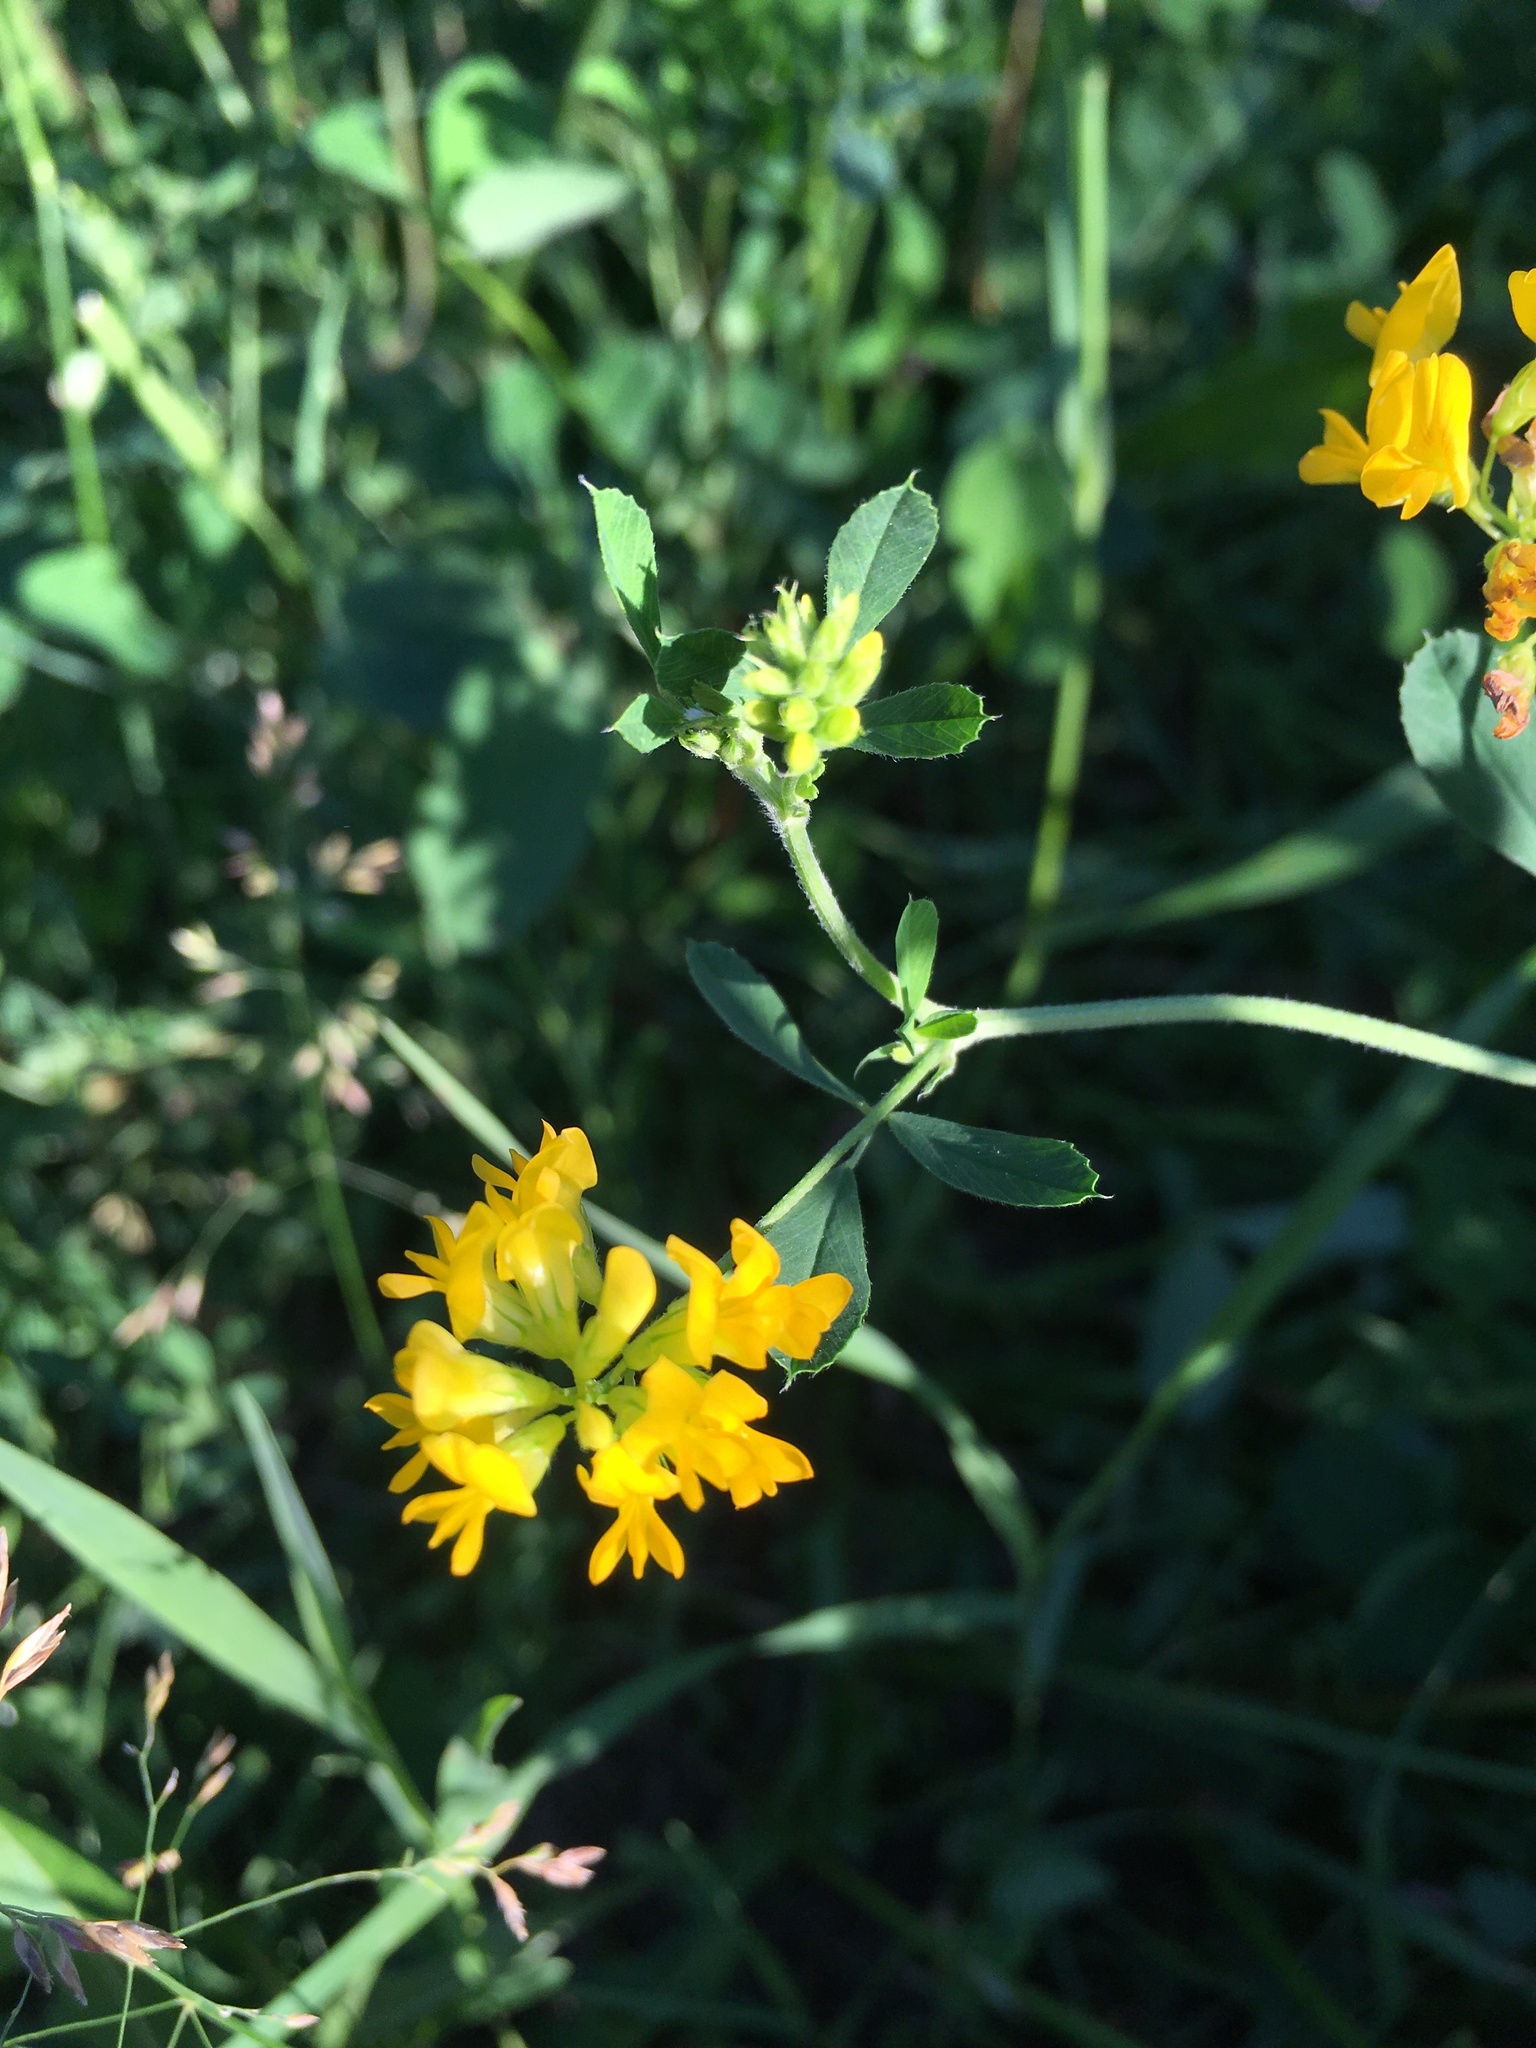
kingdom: Plantae
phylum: Tracheophyta
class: Magnoliopsida
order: Fabales
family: Fabaceae
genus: Medicago
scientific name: Medicago falcata
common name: Sickle medick
